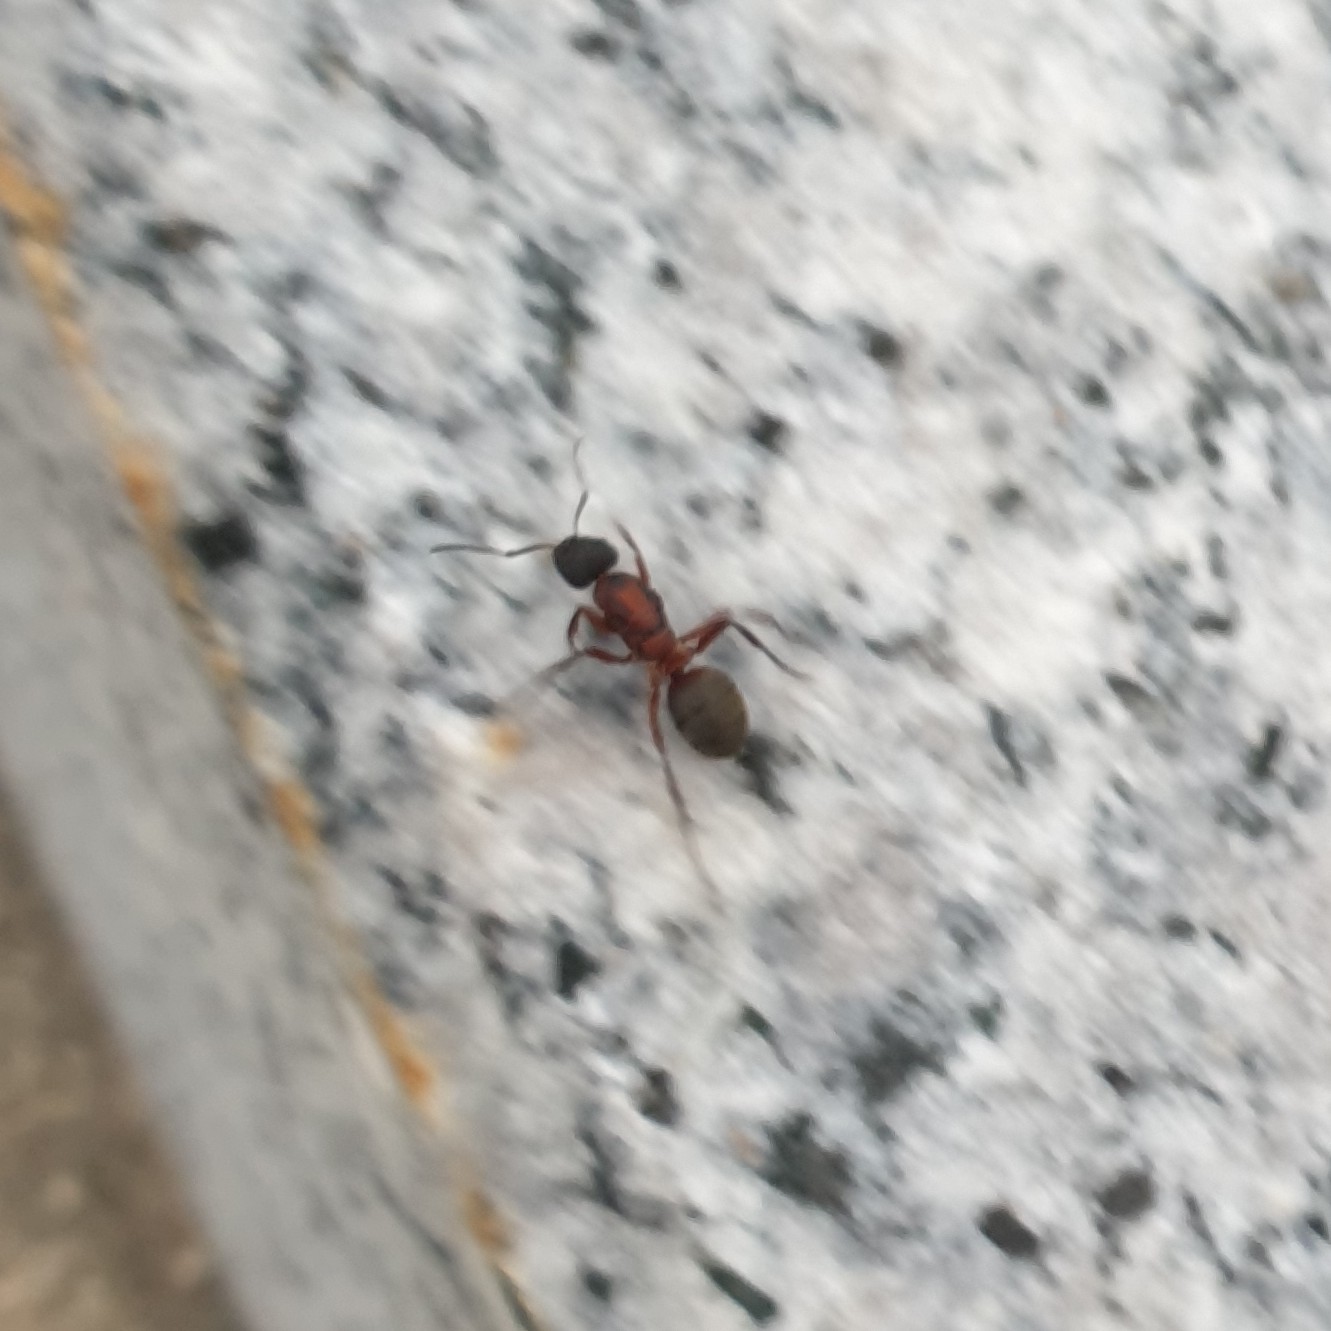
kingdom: Animalia
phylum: Arthropoda
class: Insecta
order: Hymenoptera
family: Formicidae
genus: Formica
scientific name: Formica sanguinea
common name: Blood-red ant
